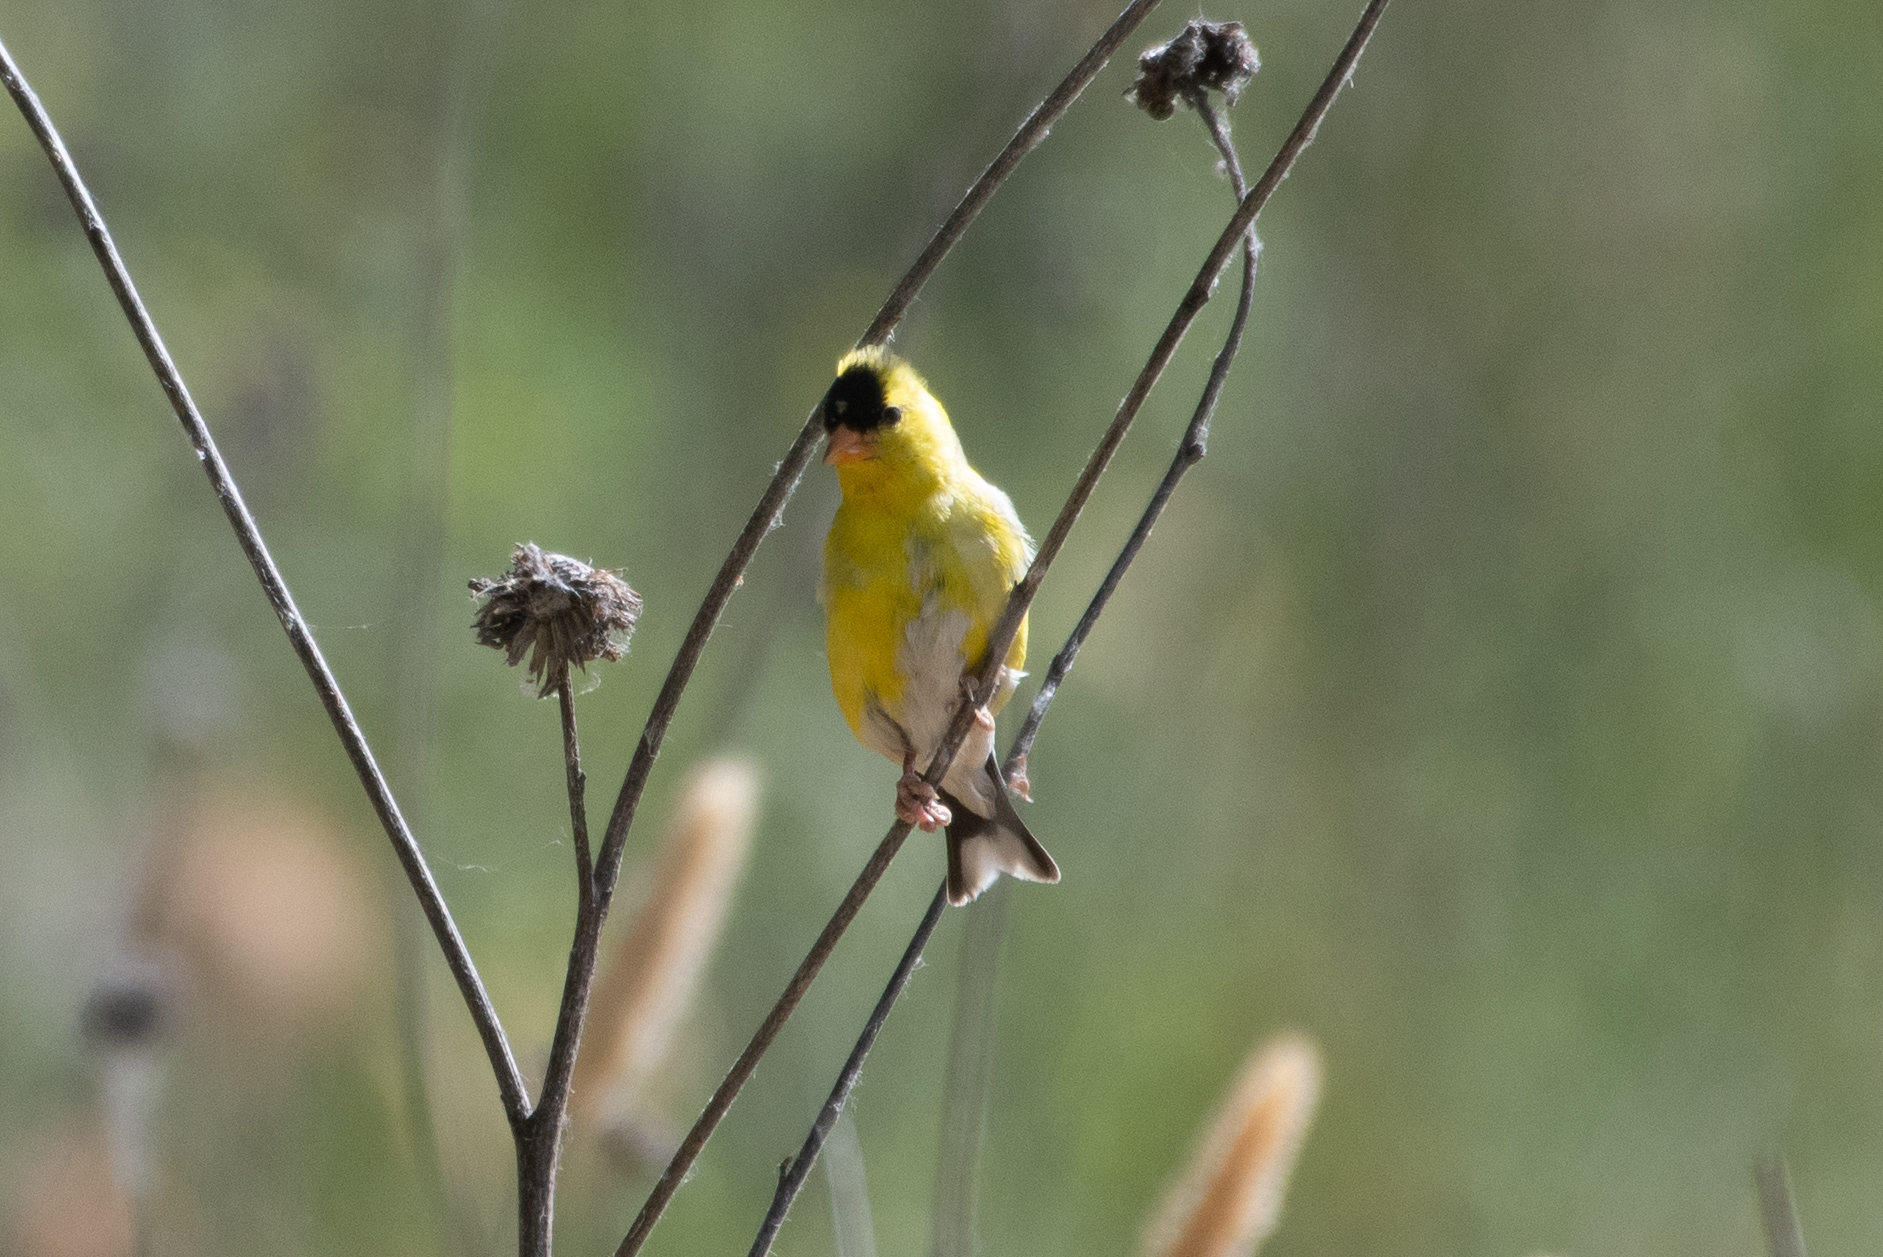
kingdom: Animalia
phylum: Chordata
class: Aves
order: Passeriformes
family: Fringillidae
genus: Spinus
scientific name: Spinus tristis
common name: American goldfinch
